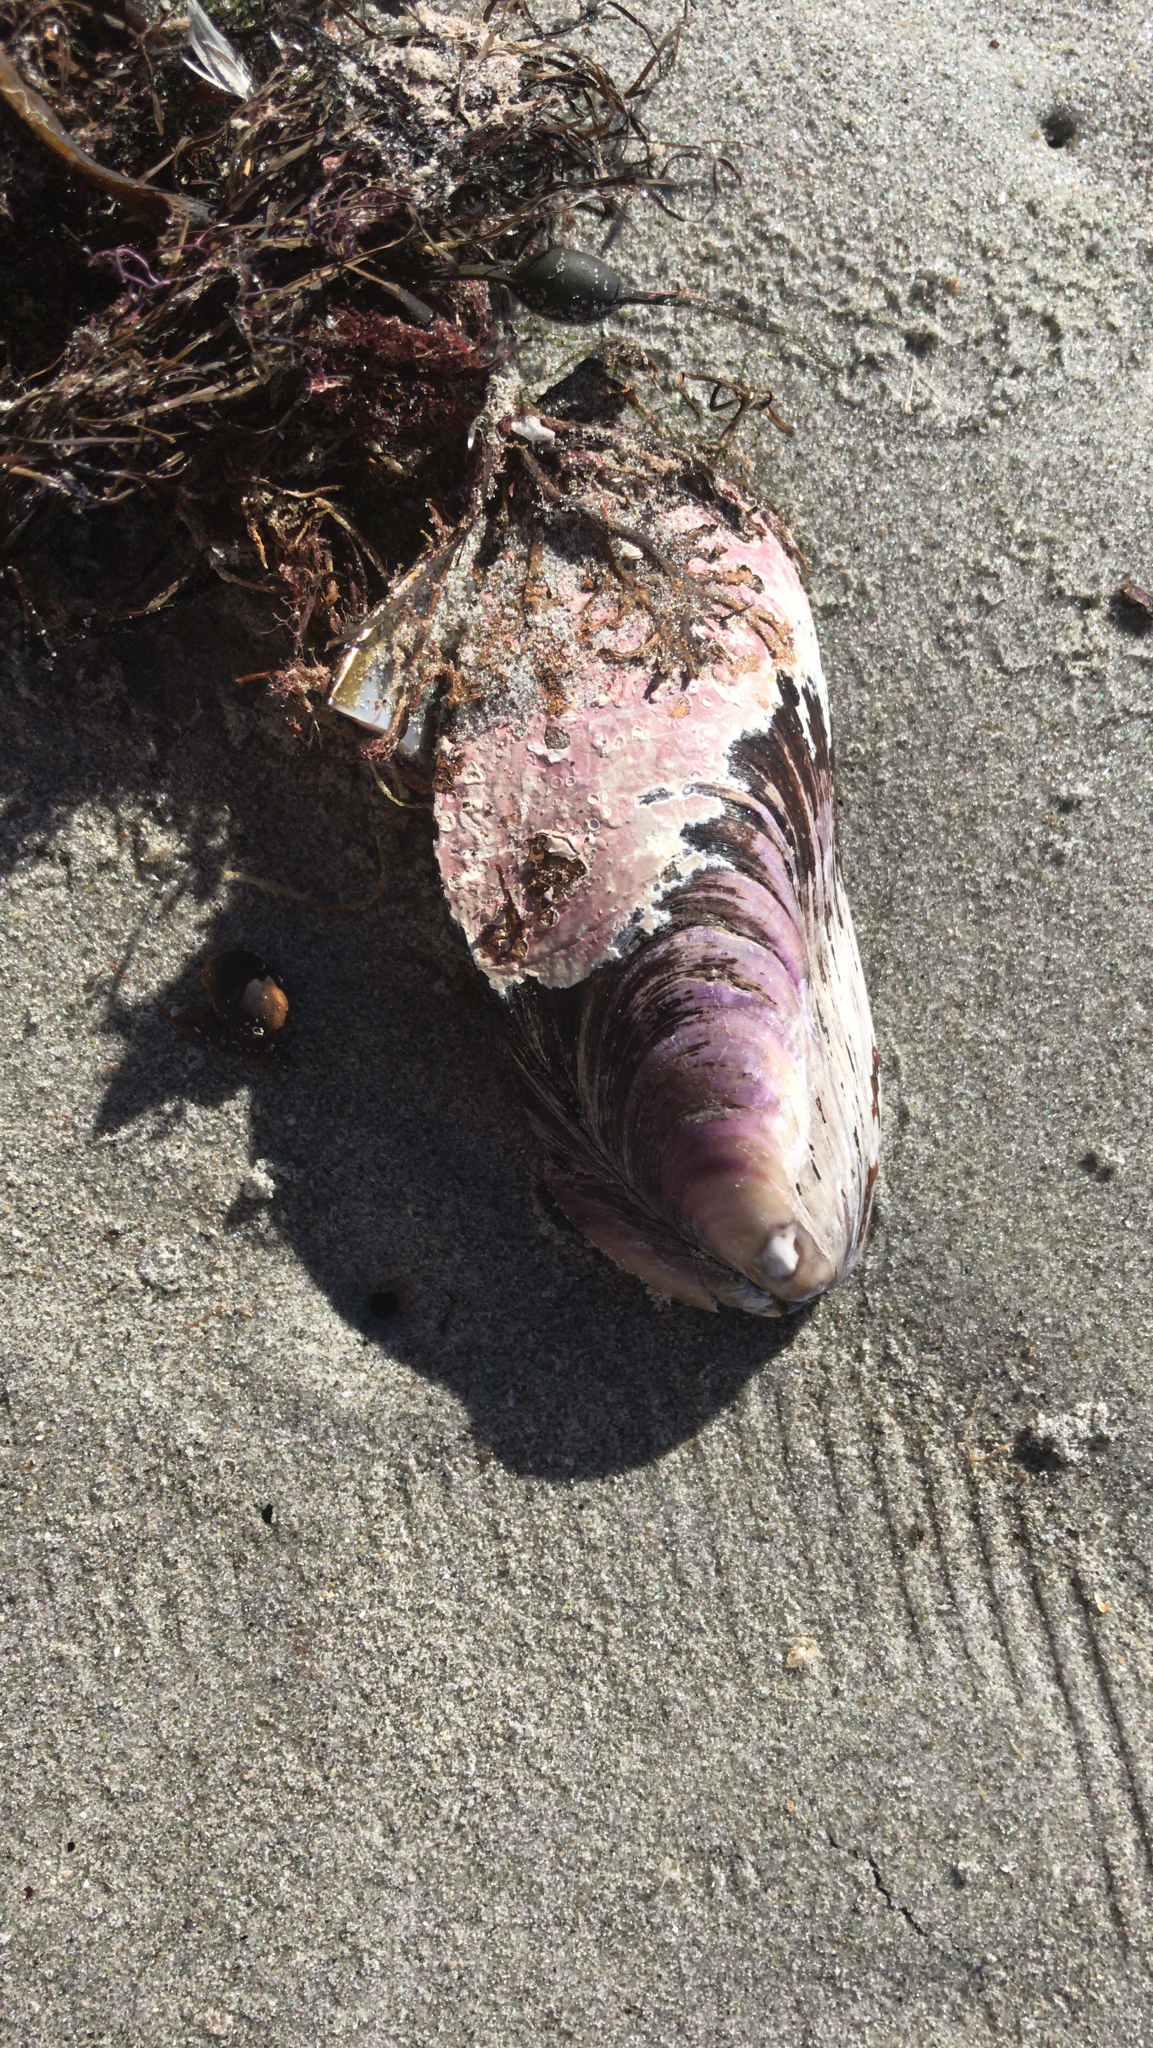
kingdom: Animalia
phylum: Mollusca
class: Bivalvia
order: Mytilida
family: Mytilidae
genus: Modiolus
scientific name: Modiolus modiolus
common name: Horse-mussel
